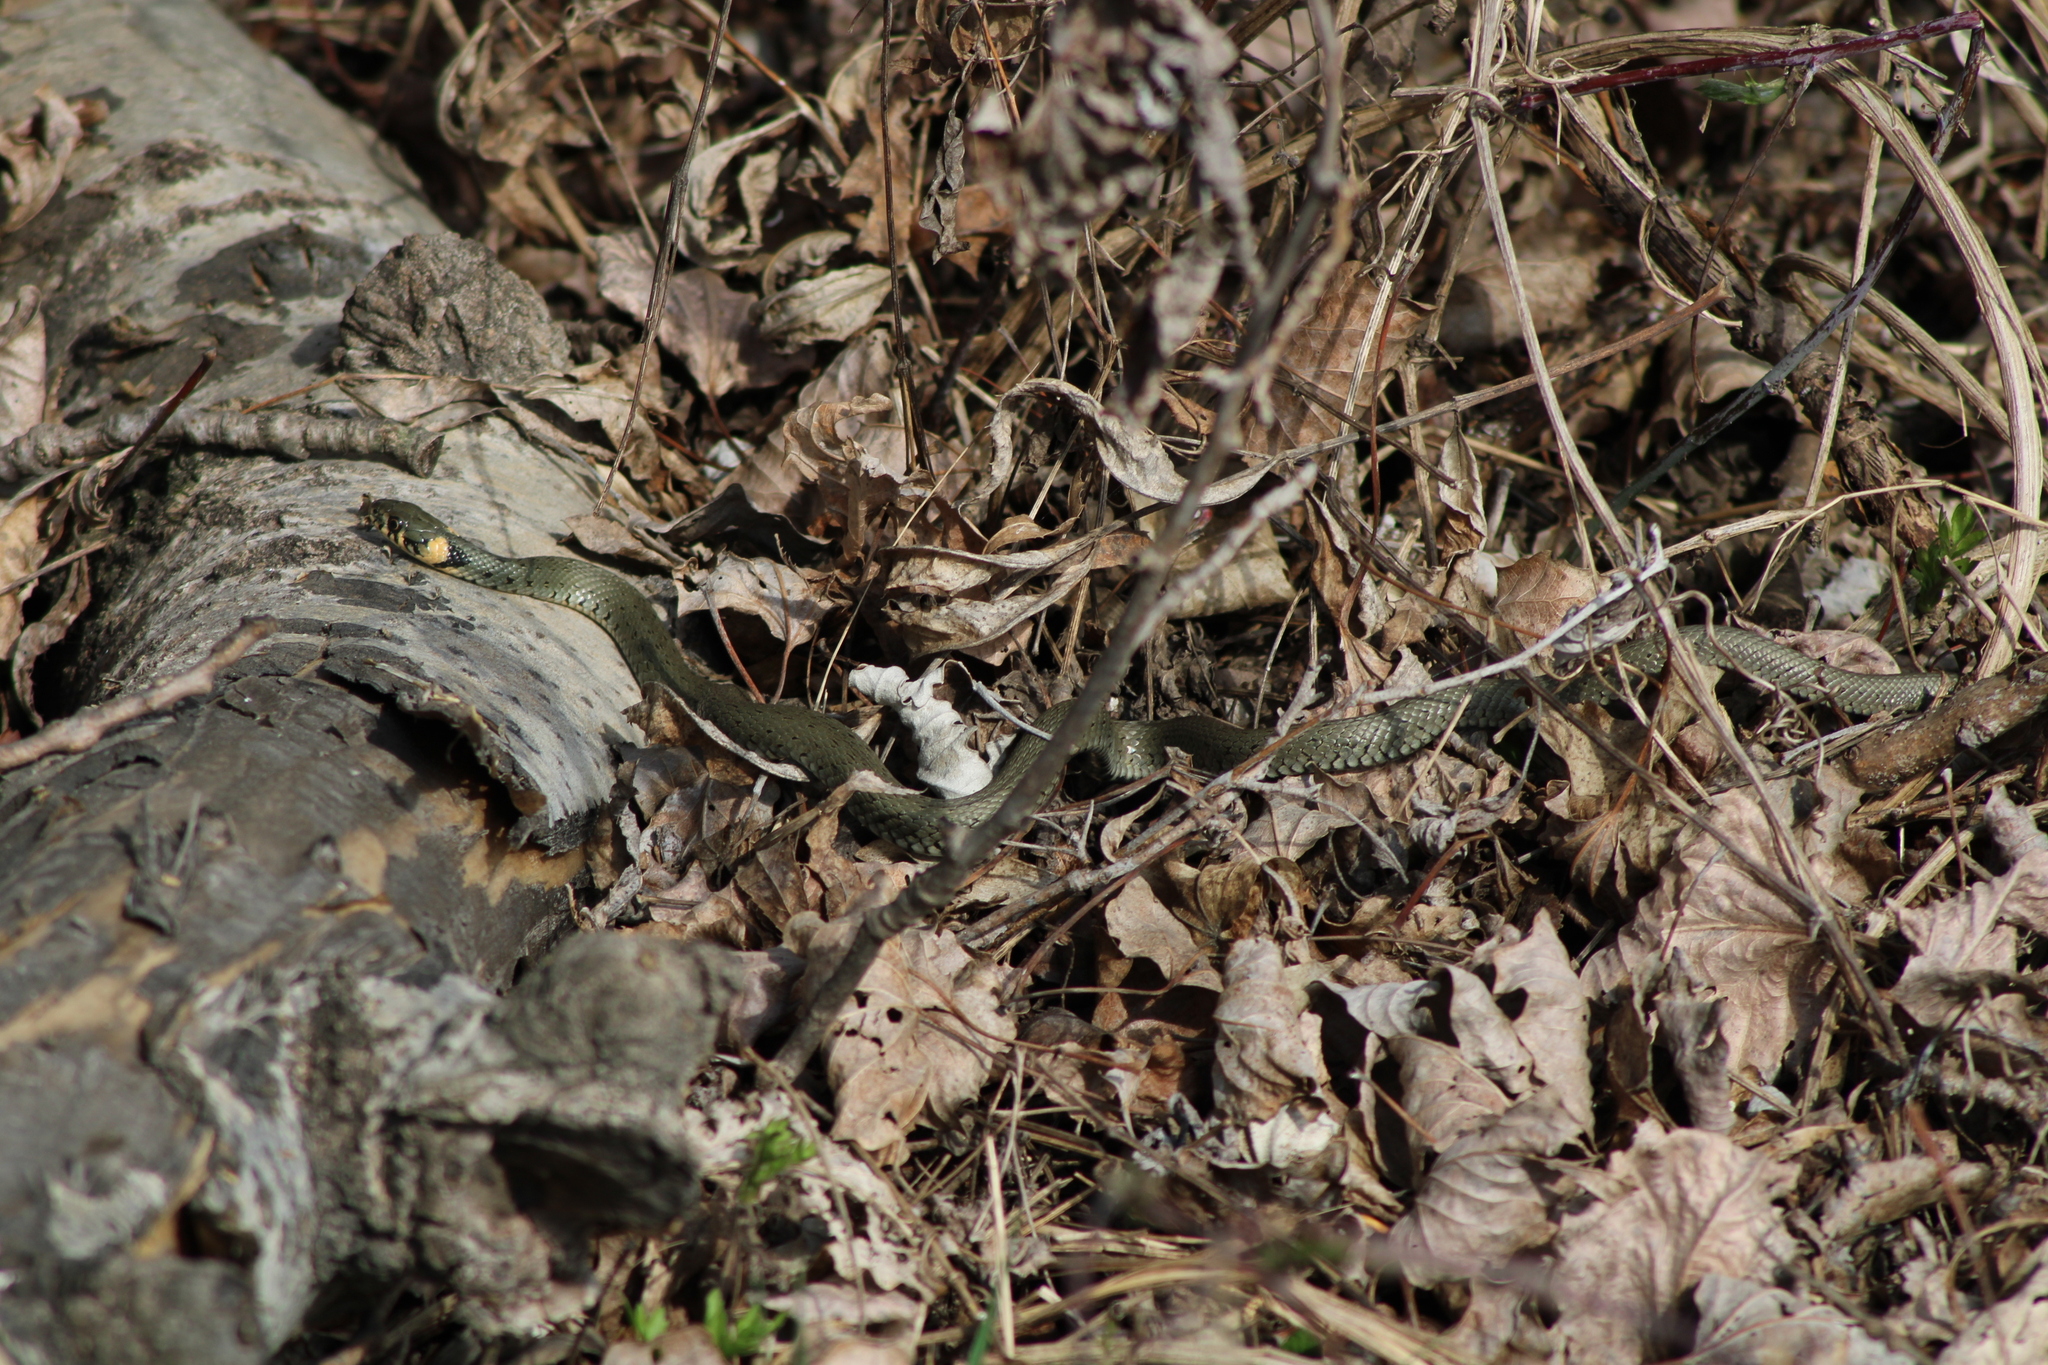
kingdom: Animalia
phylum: Chordata
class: Squamata
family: Colubridae
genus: Natrix
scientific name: Natrix natrix
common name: Grass snake
